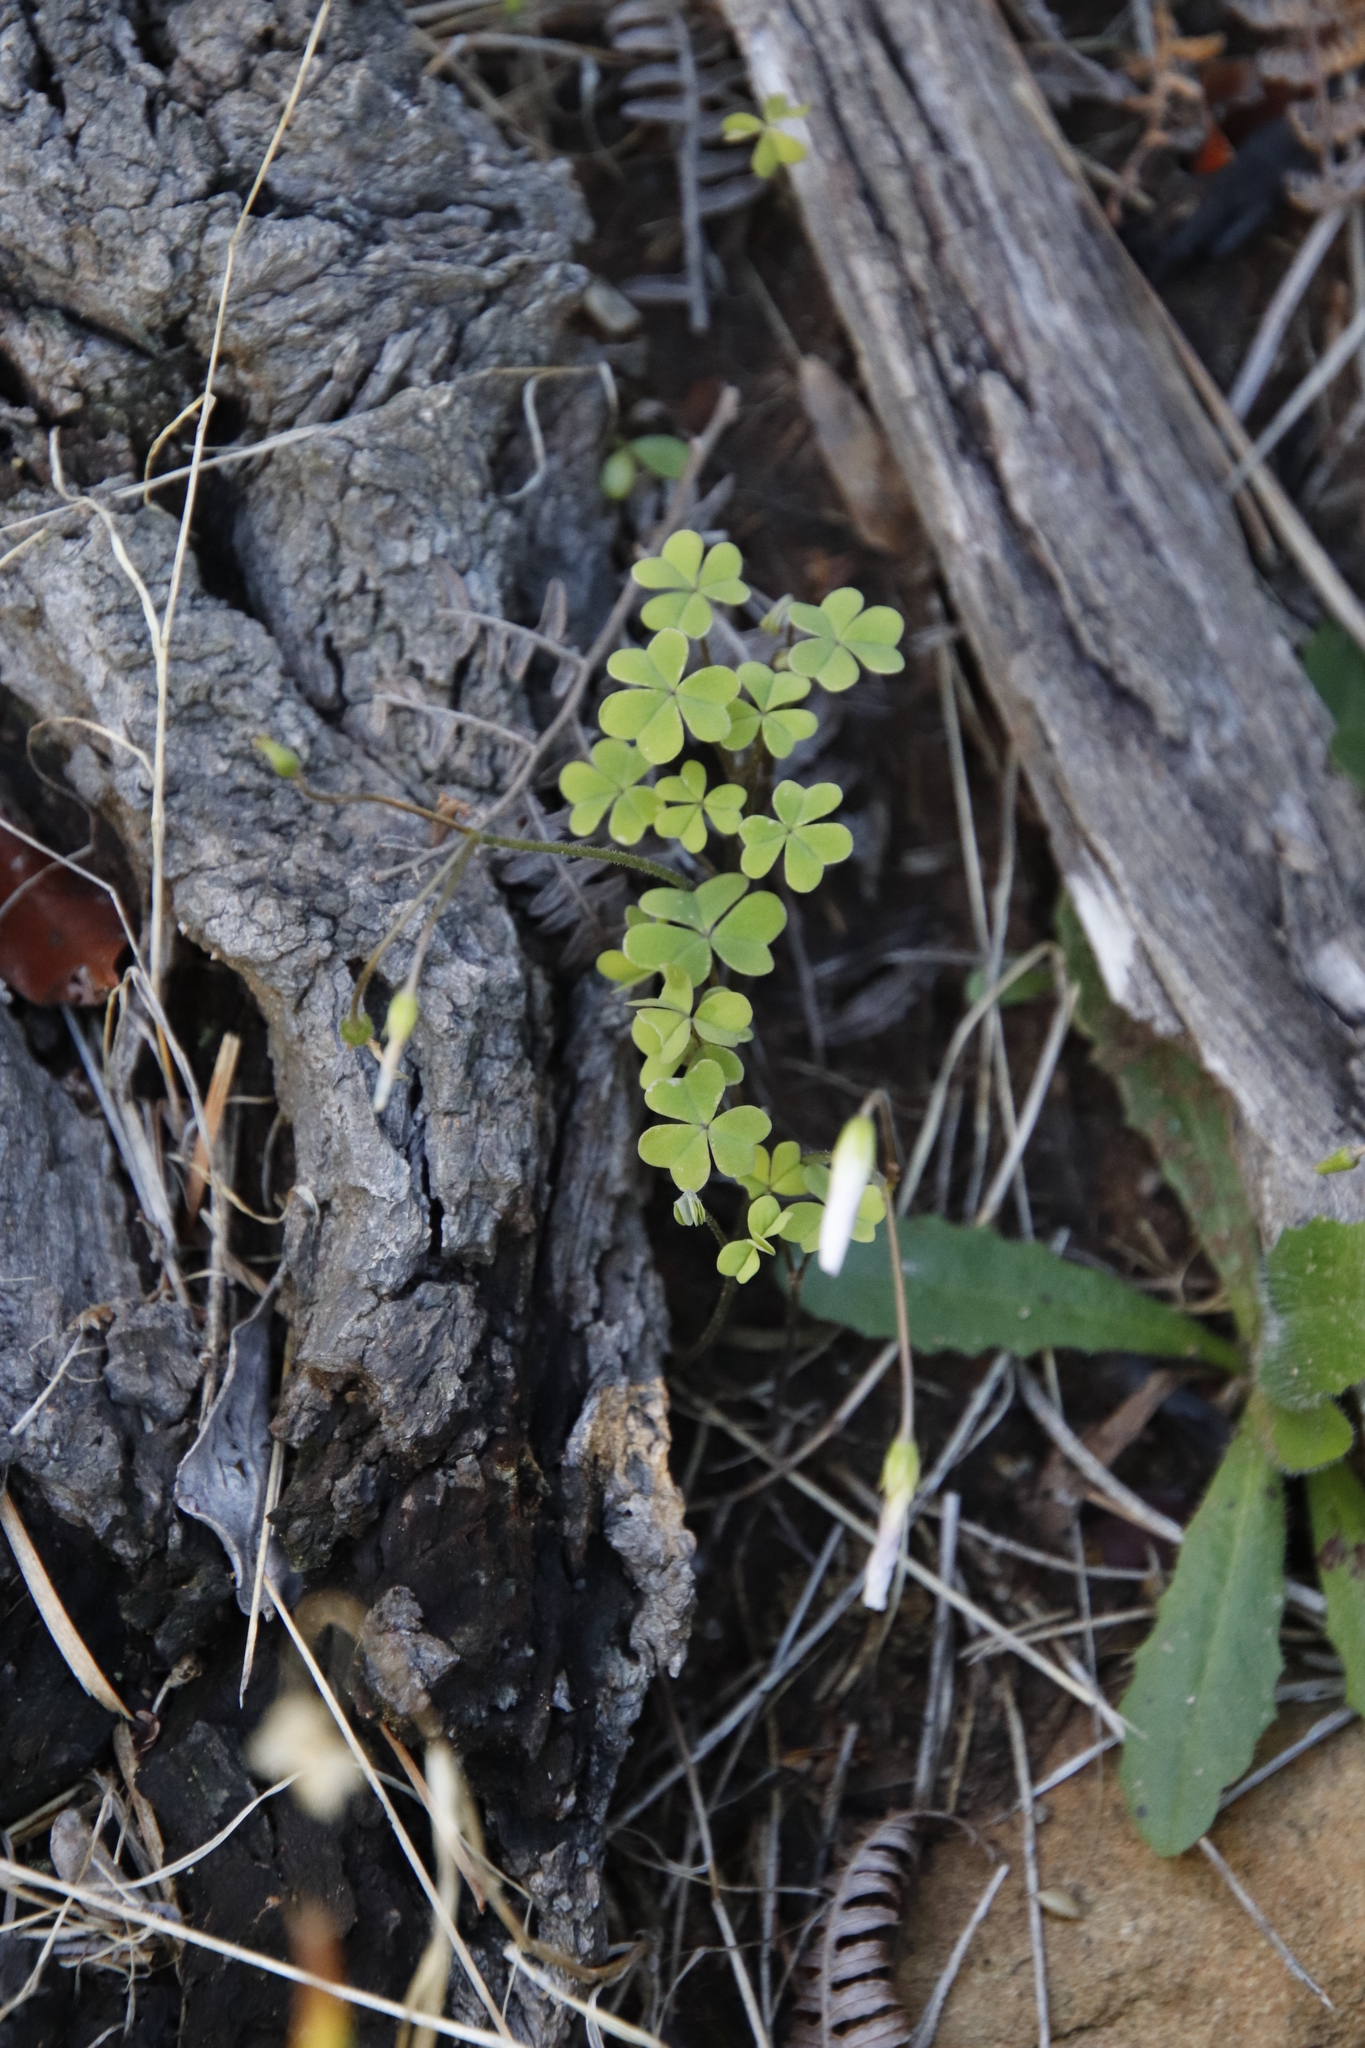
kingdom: Plantae
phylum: Tracheophyta
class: Magnoliopsida
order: Oxalidales
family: Oxalidaceae
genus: Oxalis
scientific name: Oxalis
